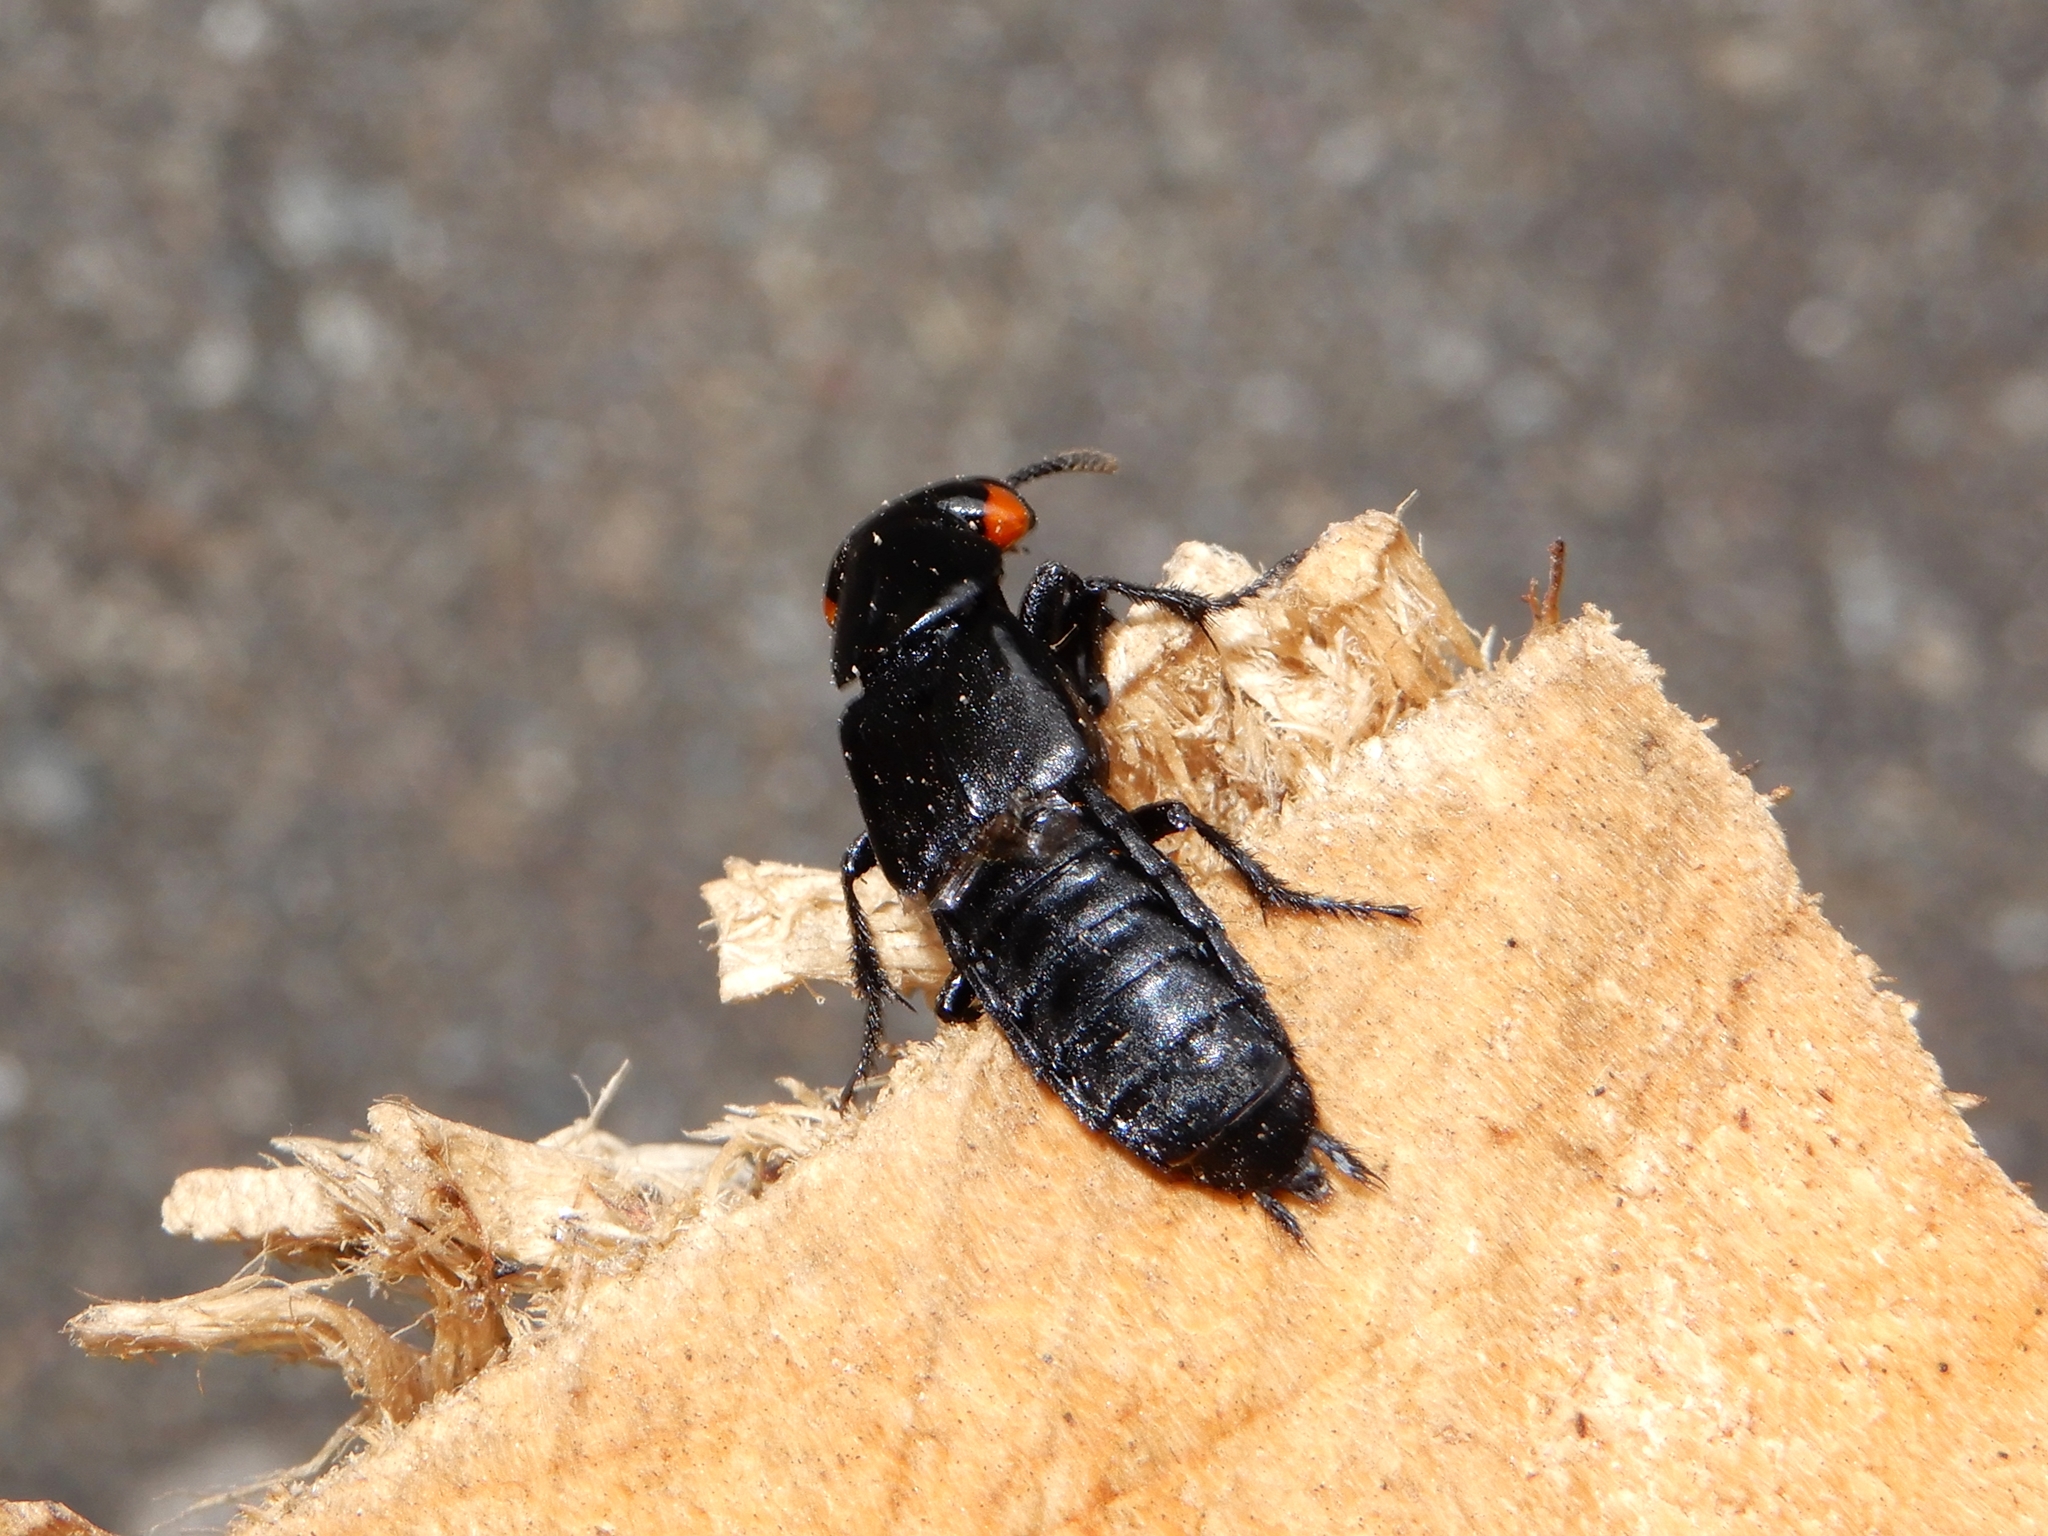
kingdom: Animalia
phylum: Arthropoda
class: Insecta
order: Coleoptera
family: Staphylinidae
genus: Creophilus
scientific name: Creophilus oculatus
